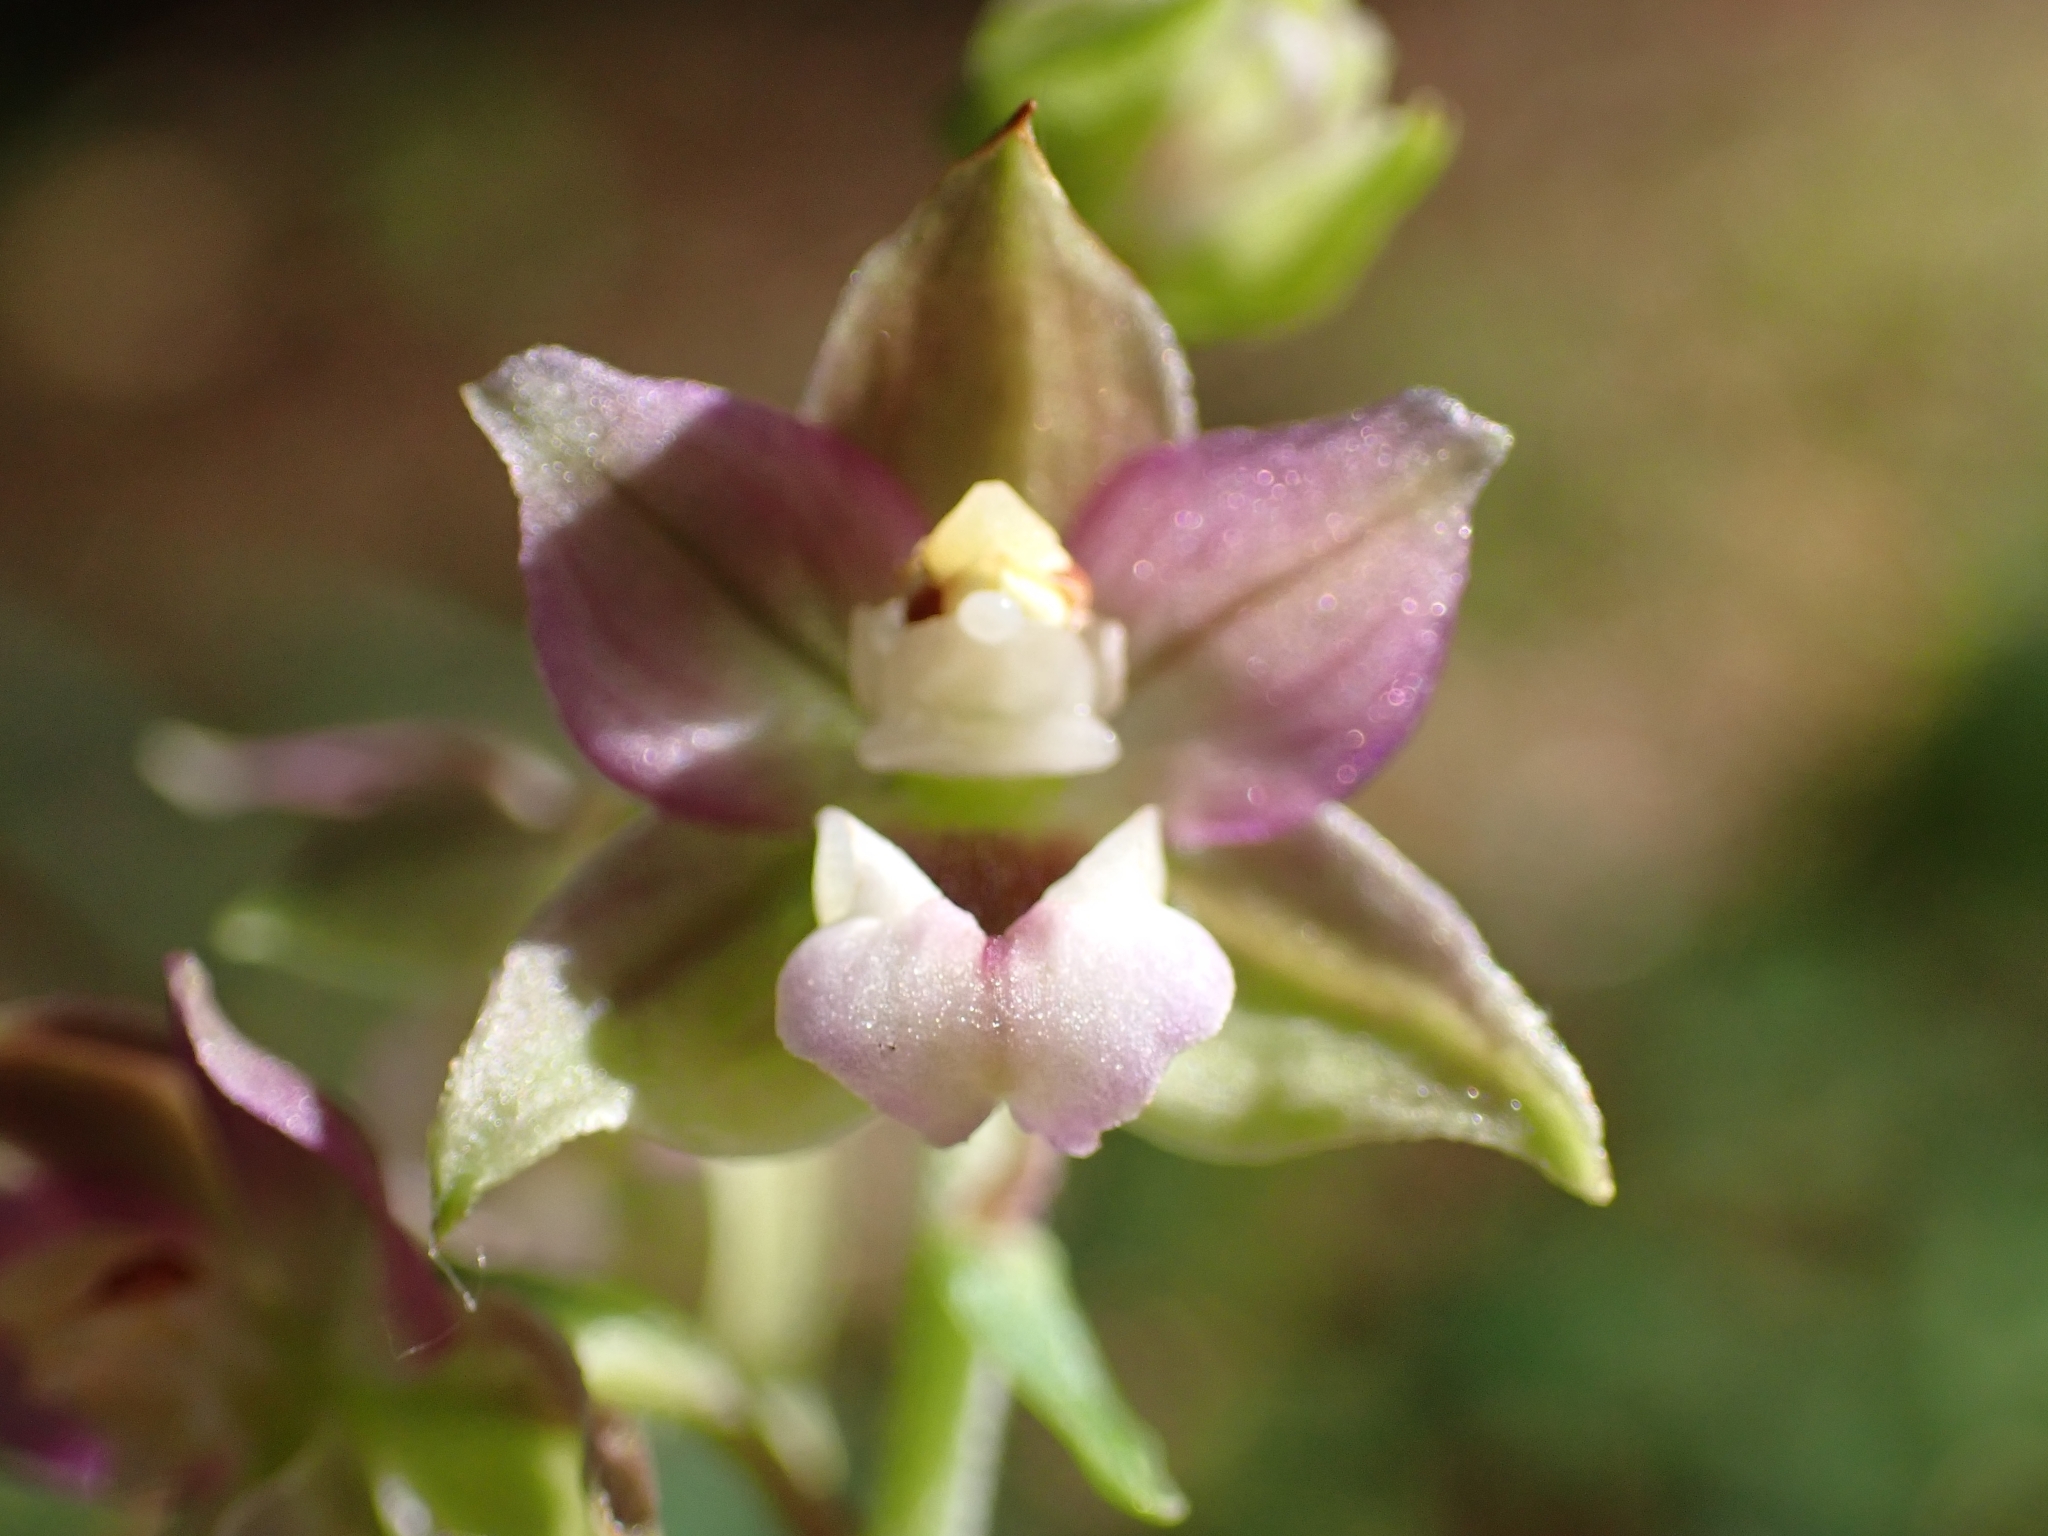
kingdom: Plantae
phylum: Tracheophyta
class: Liliopsida
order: Asparagales
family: Orchidaceae
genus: Epipactis
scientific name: Epipactis helleborine
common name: Broad-leaved helleborine
